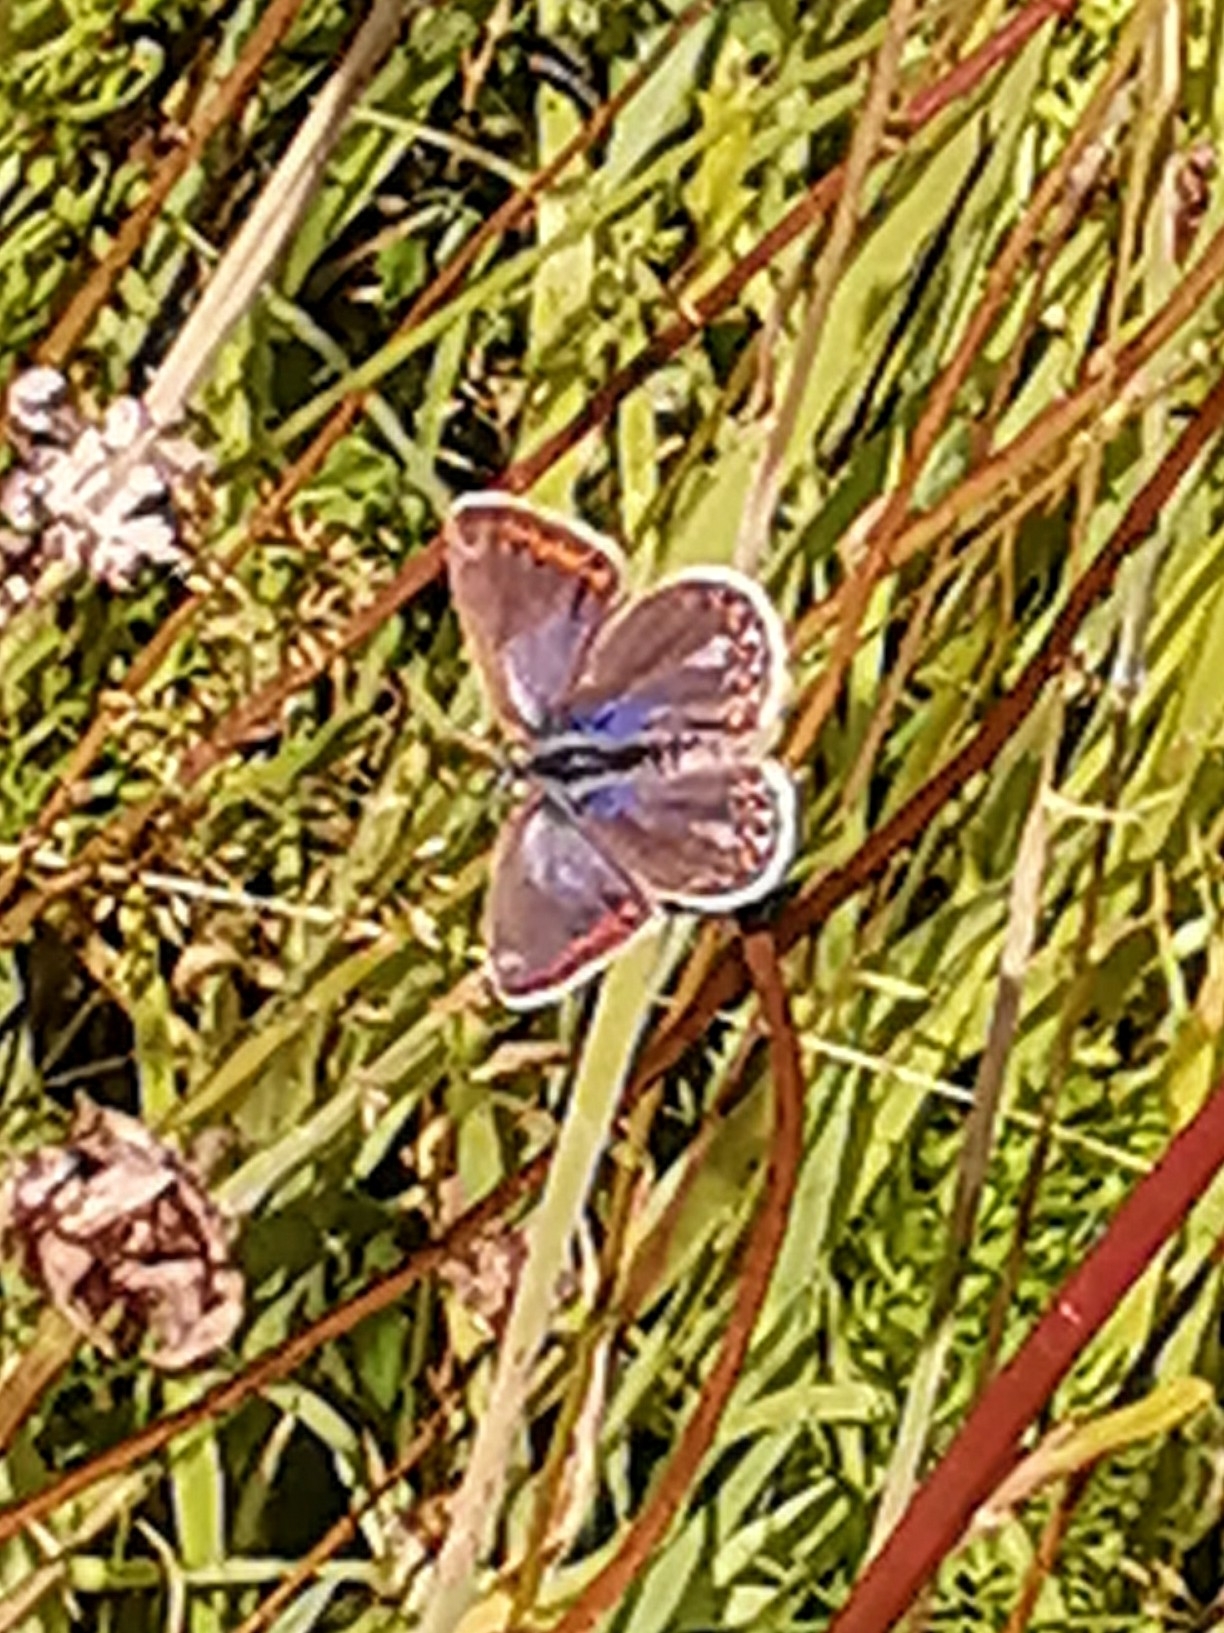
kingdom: Animalia
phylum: Arthropoda
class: Insecta
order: Lepidoptera
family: Lycaenidae
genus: Polyommatus
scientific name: Polyommatus icarus
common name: Common blue
